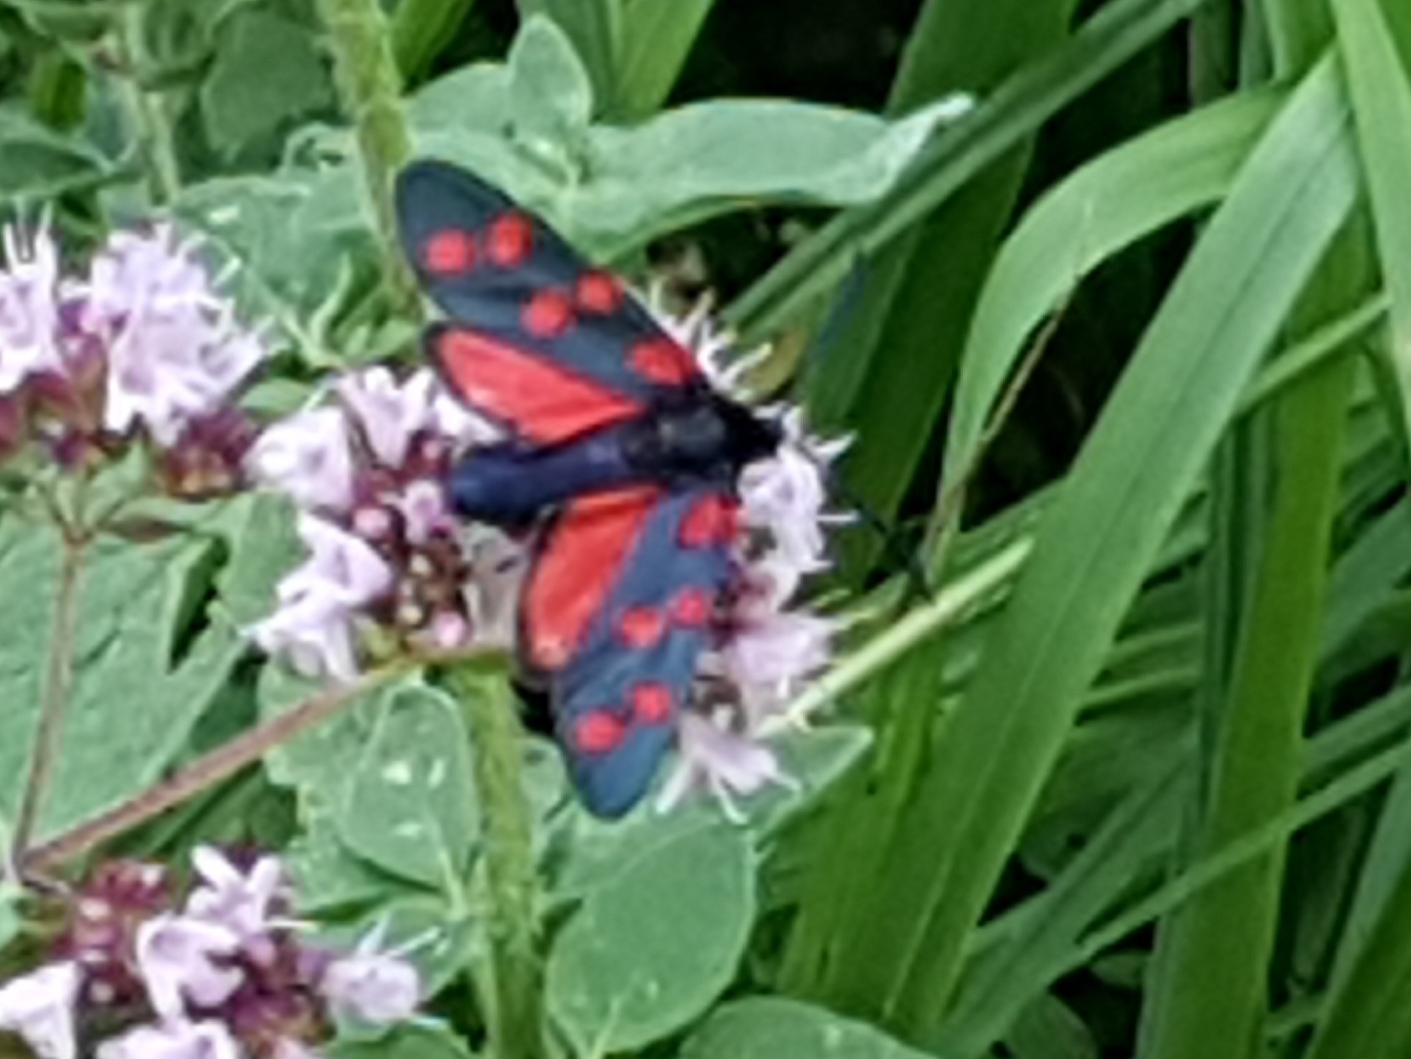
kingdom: Animalia
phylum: Arthropoda
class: Insecta
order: Lepidoptera
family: Zygaenidae
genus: Zygaena
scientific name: Zygaena transalpina
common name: Southern six spot burnet
